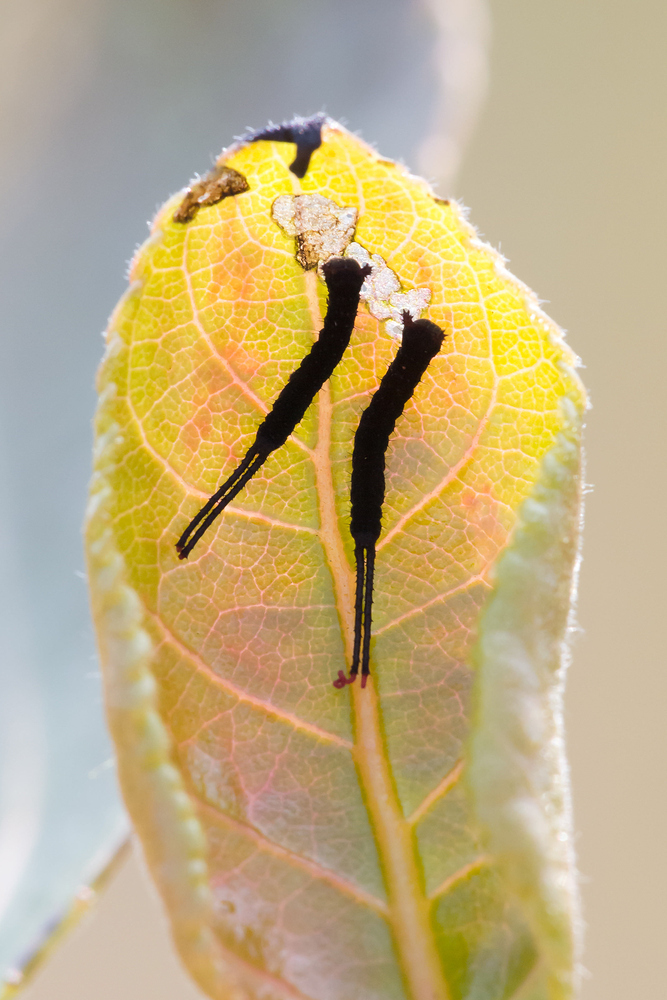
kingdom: Animalia
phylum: Arthropoda
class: Insecta
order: Lepidoptera
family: Notodontidae
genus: Cerura
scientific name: Cerura vinula
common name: Puss moth
